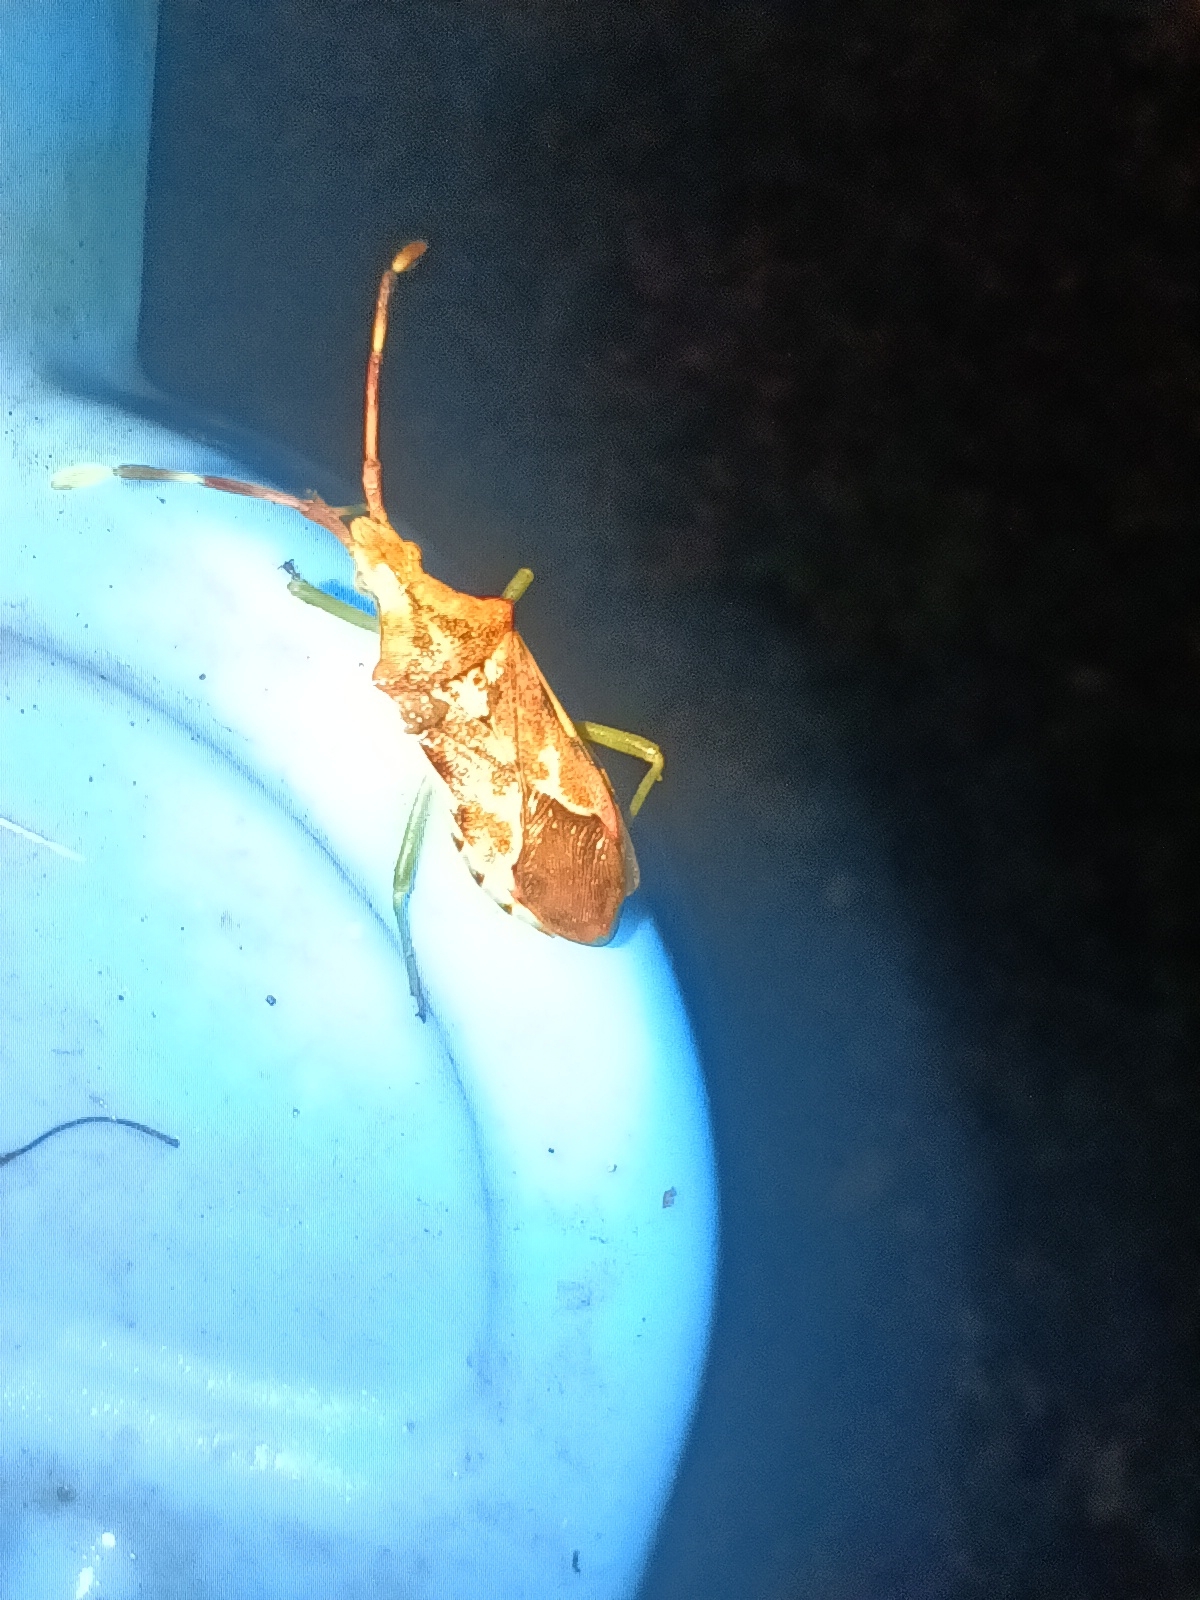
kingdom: Animalia
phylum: Arthropoda
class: Insecta
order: Hemiptera
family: Coreidae
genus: Gonocerus
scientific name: Gonocerus juniperi
